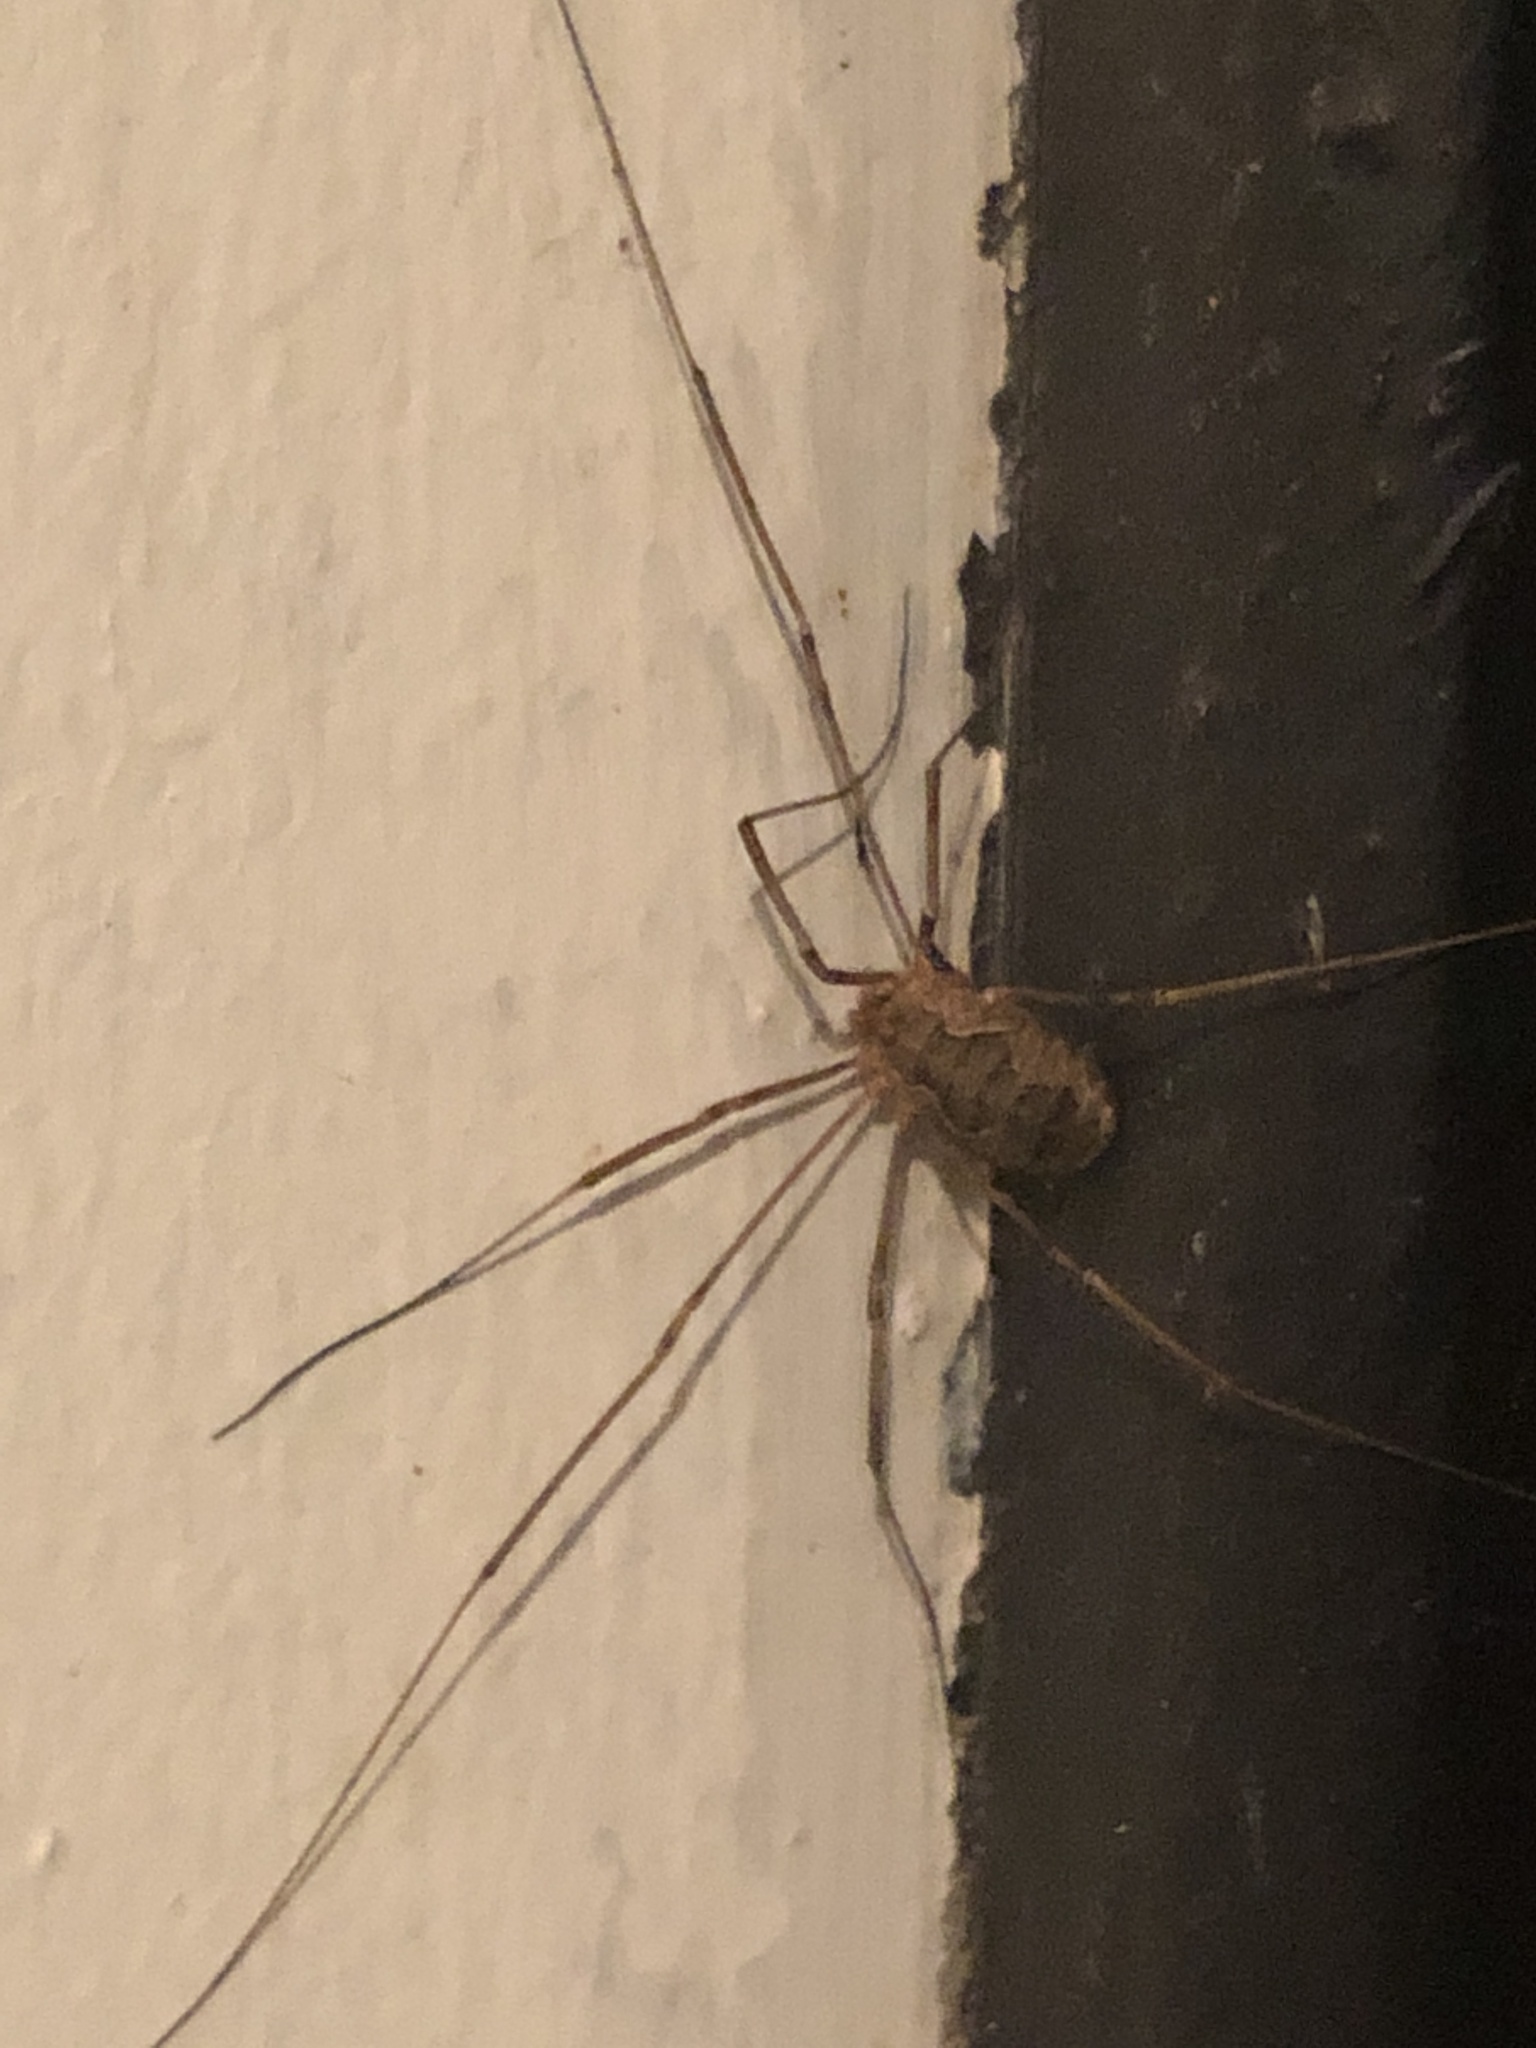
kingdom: Animalia
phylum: Arthropoda
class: Arachnida
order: Opiliones
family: Phalangiidae
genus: Phalangium
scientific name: Phalangium opilio
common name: Daddy longleg
